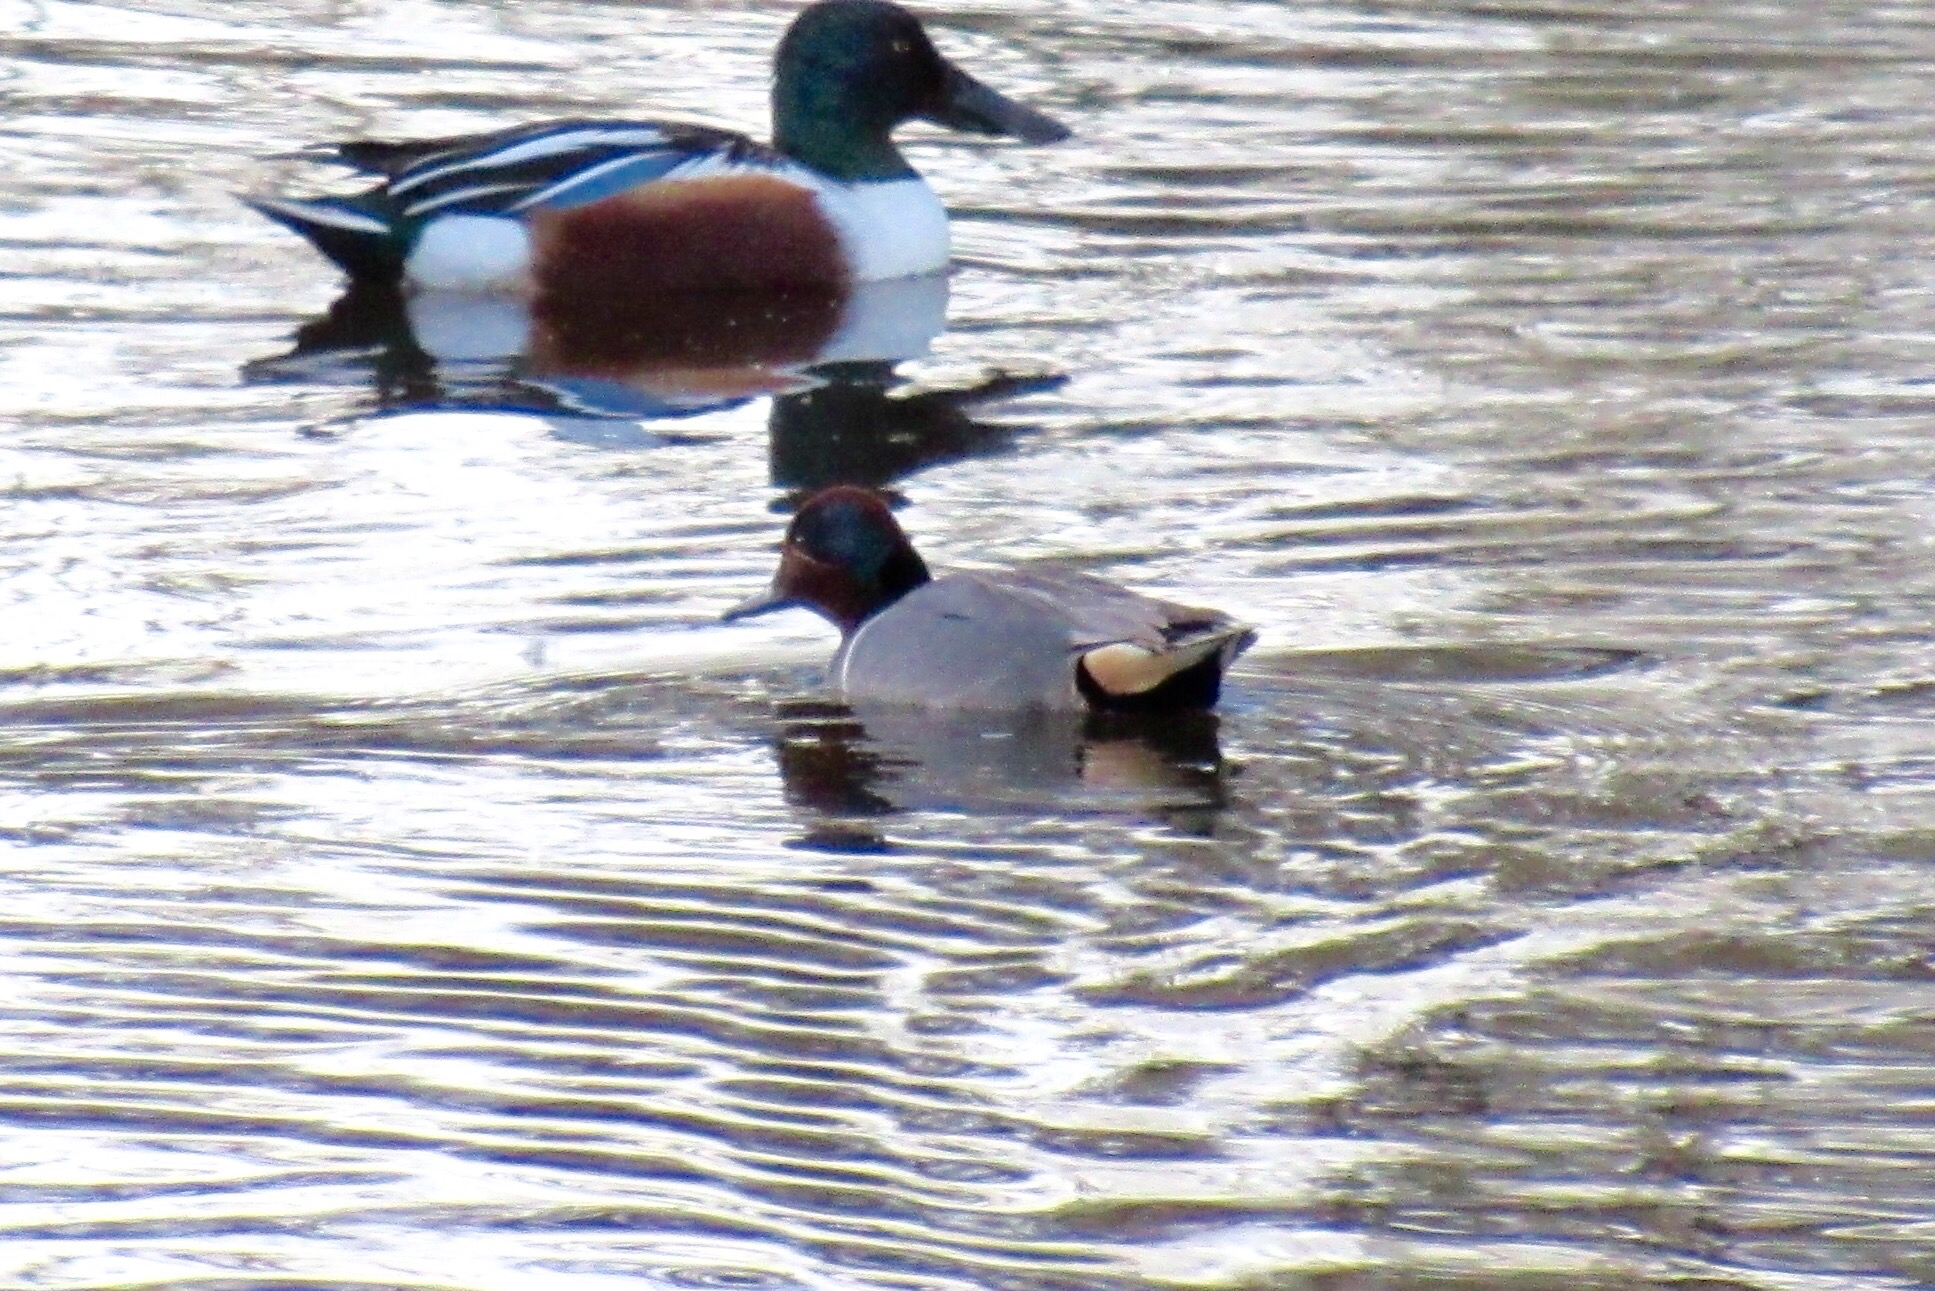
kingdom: Animalia
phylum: Chordata
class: Aves
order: Anseriformes
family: Anatidae
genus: Anas
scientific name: Anas crecca
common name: Eurasian teal
